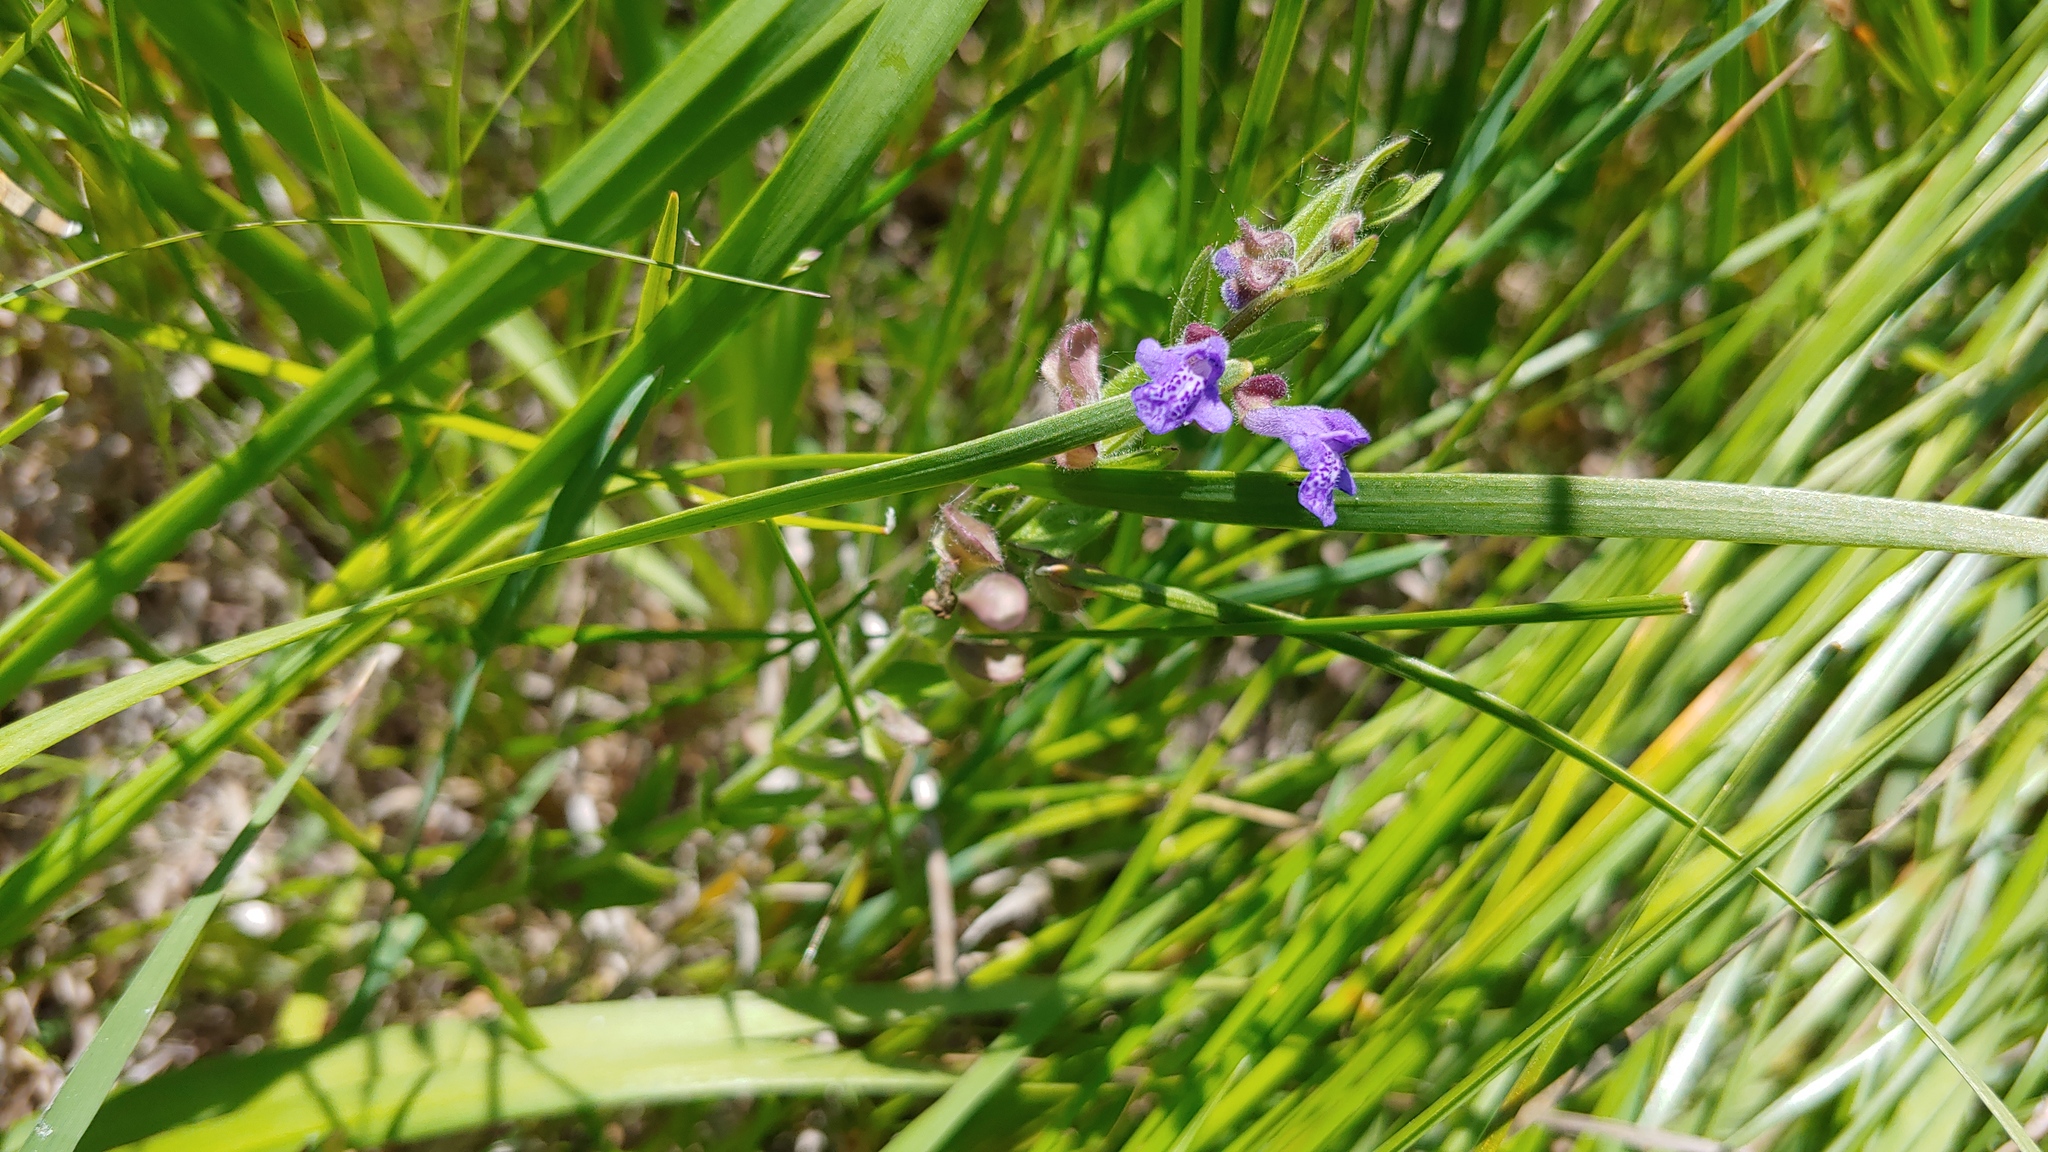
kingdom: Plantae
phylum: Tracheophyta
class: Magnoliopsida
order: Lamiales
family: Lamiaceae
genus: Scutellaria
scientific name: Scutellaria parvula
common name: Little scullcap
